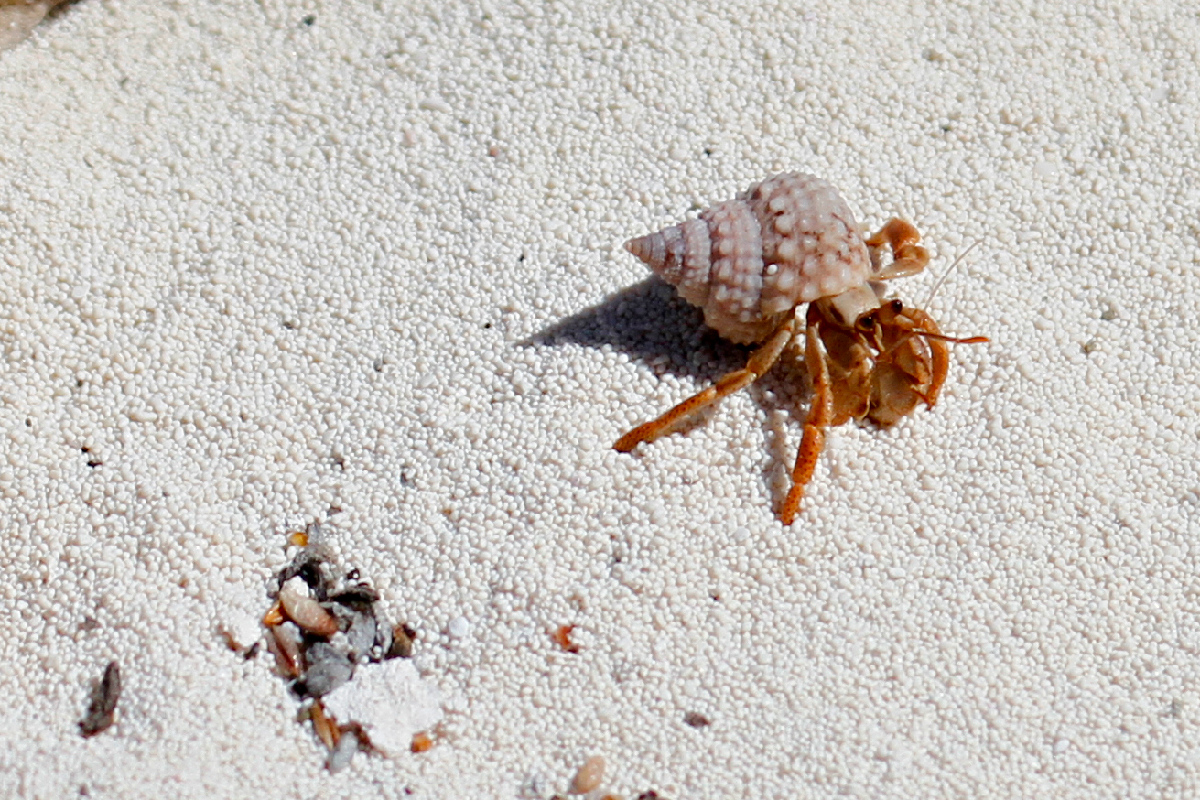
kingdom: Animalia
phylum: Arthropoda
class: Malacostraca
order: Decapoda
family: Coenobitidae
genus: Coenobita
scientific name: Coenobita clypeatus
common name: Caribbean hermit crab
